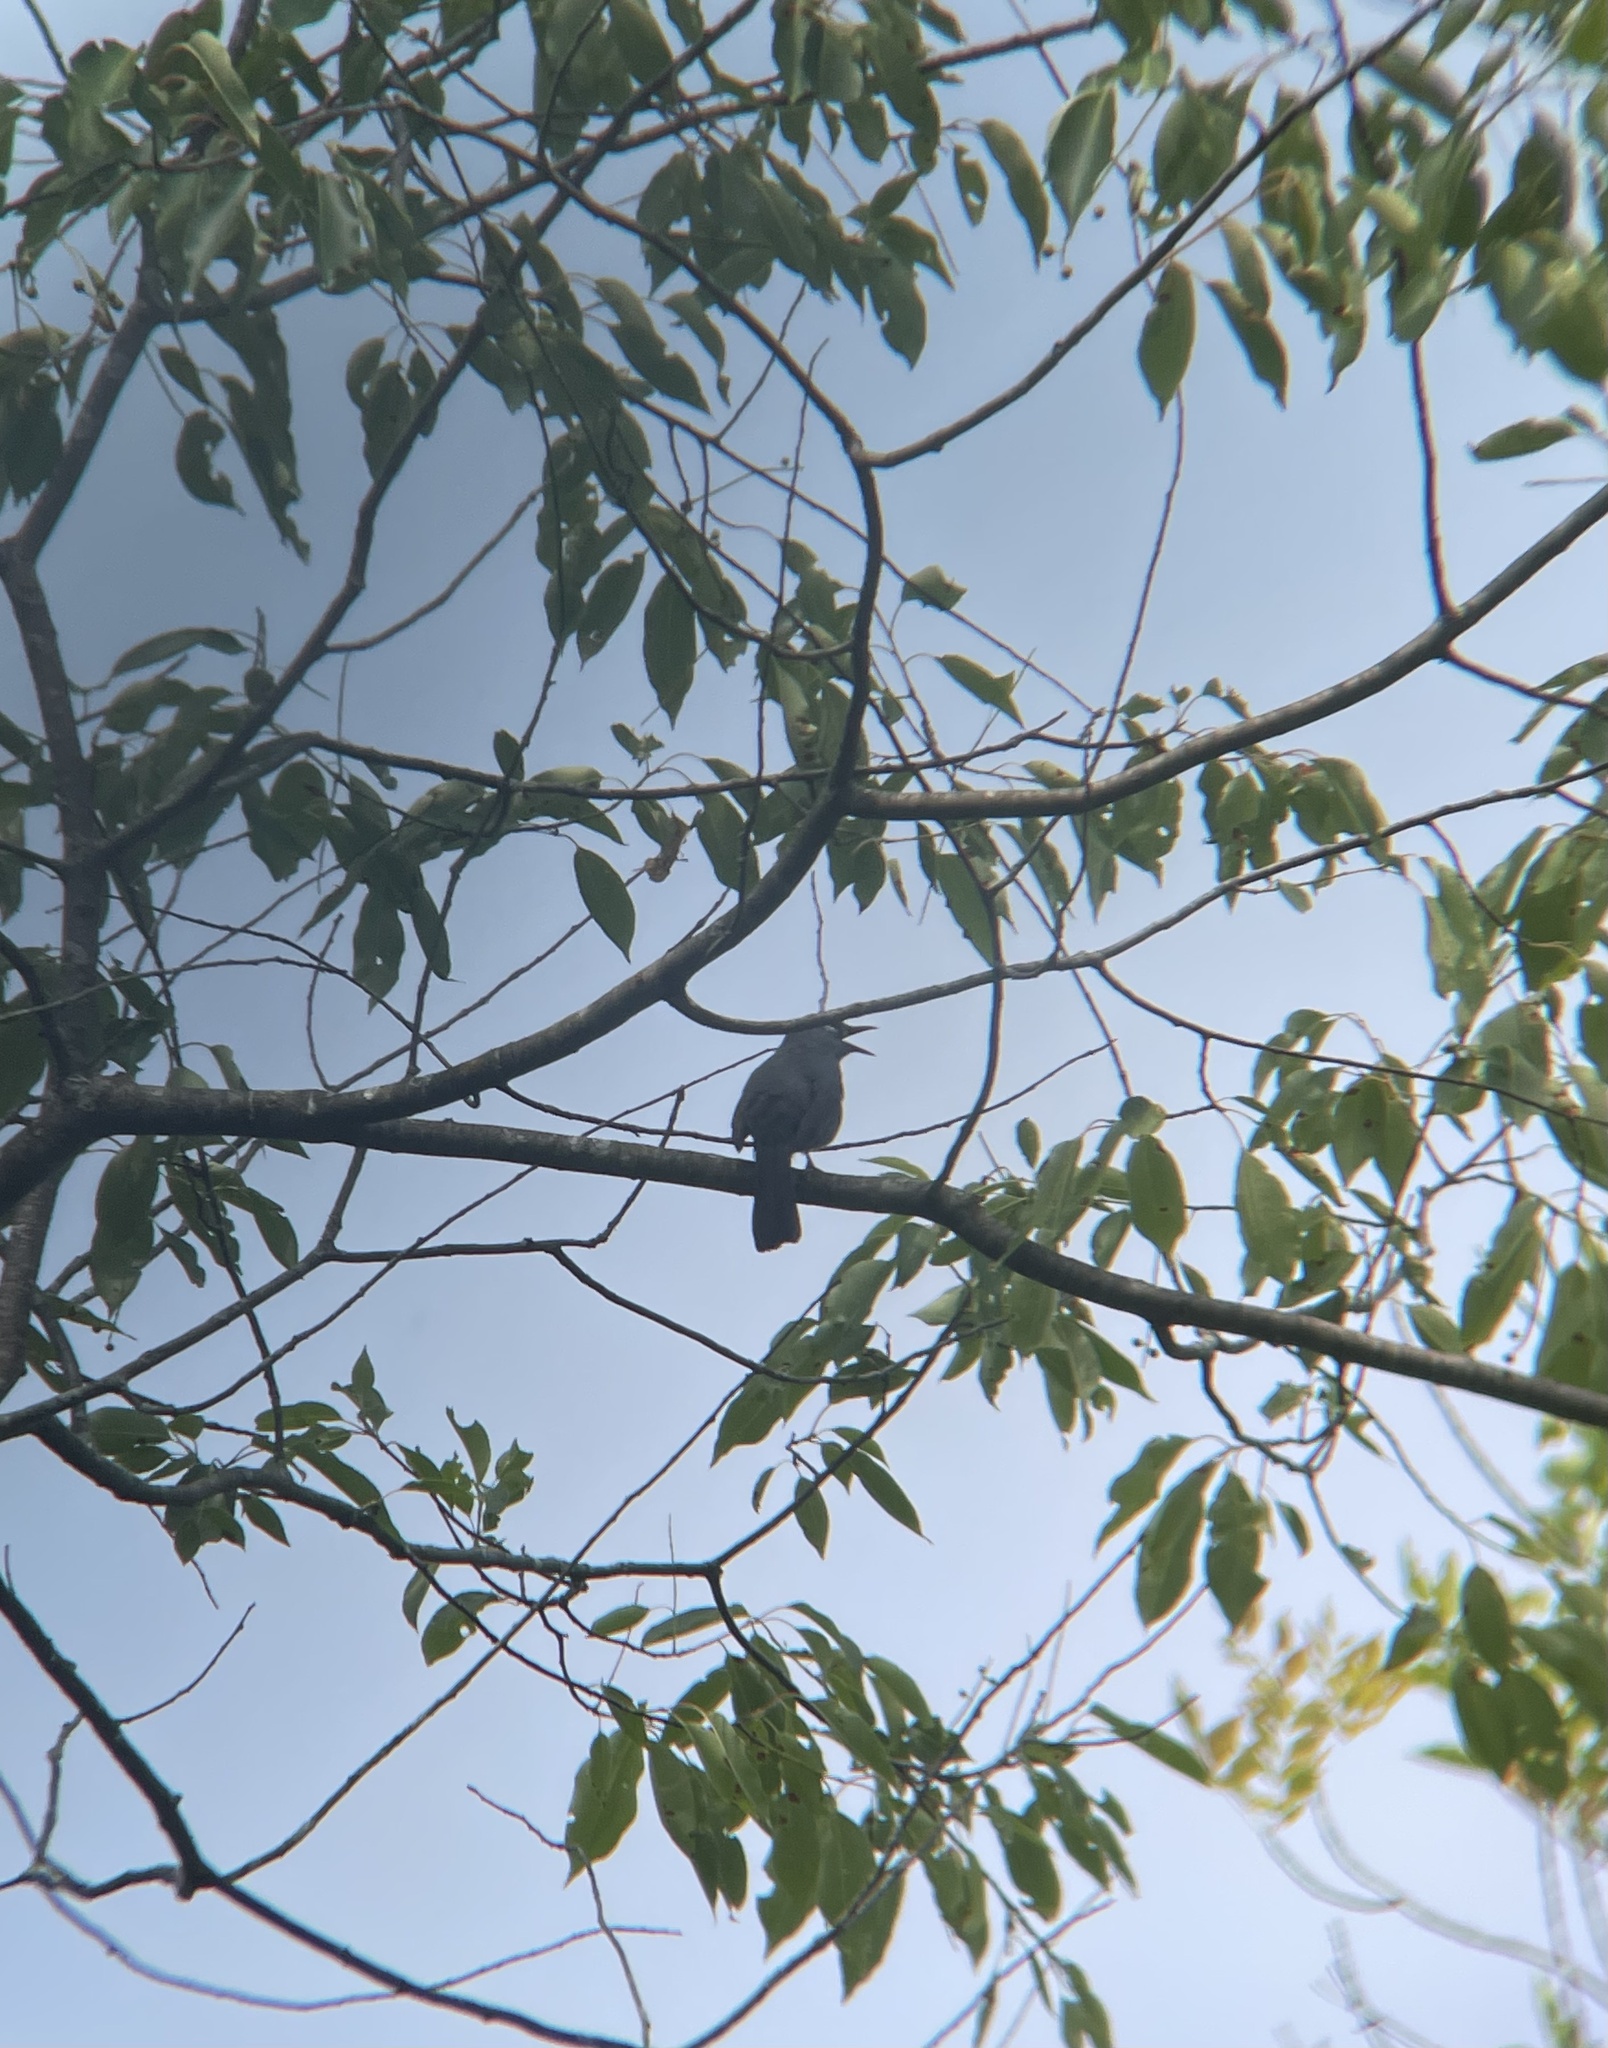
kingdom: Animalia
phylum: Chordata
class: Aves
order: Passeriformes
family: Mimidae
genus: Dumetella
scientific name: Dumetella carolinensis
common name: Gray catbird
